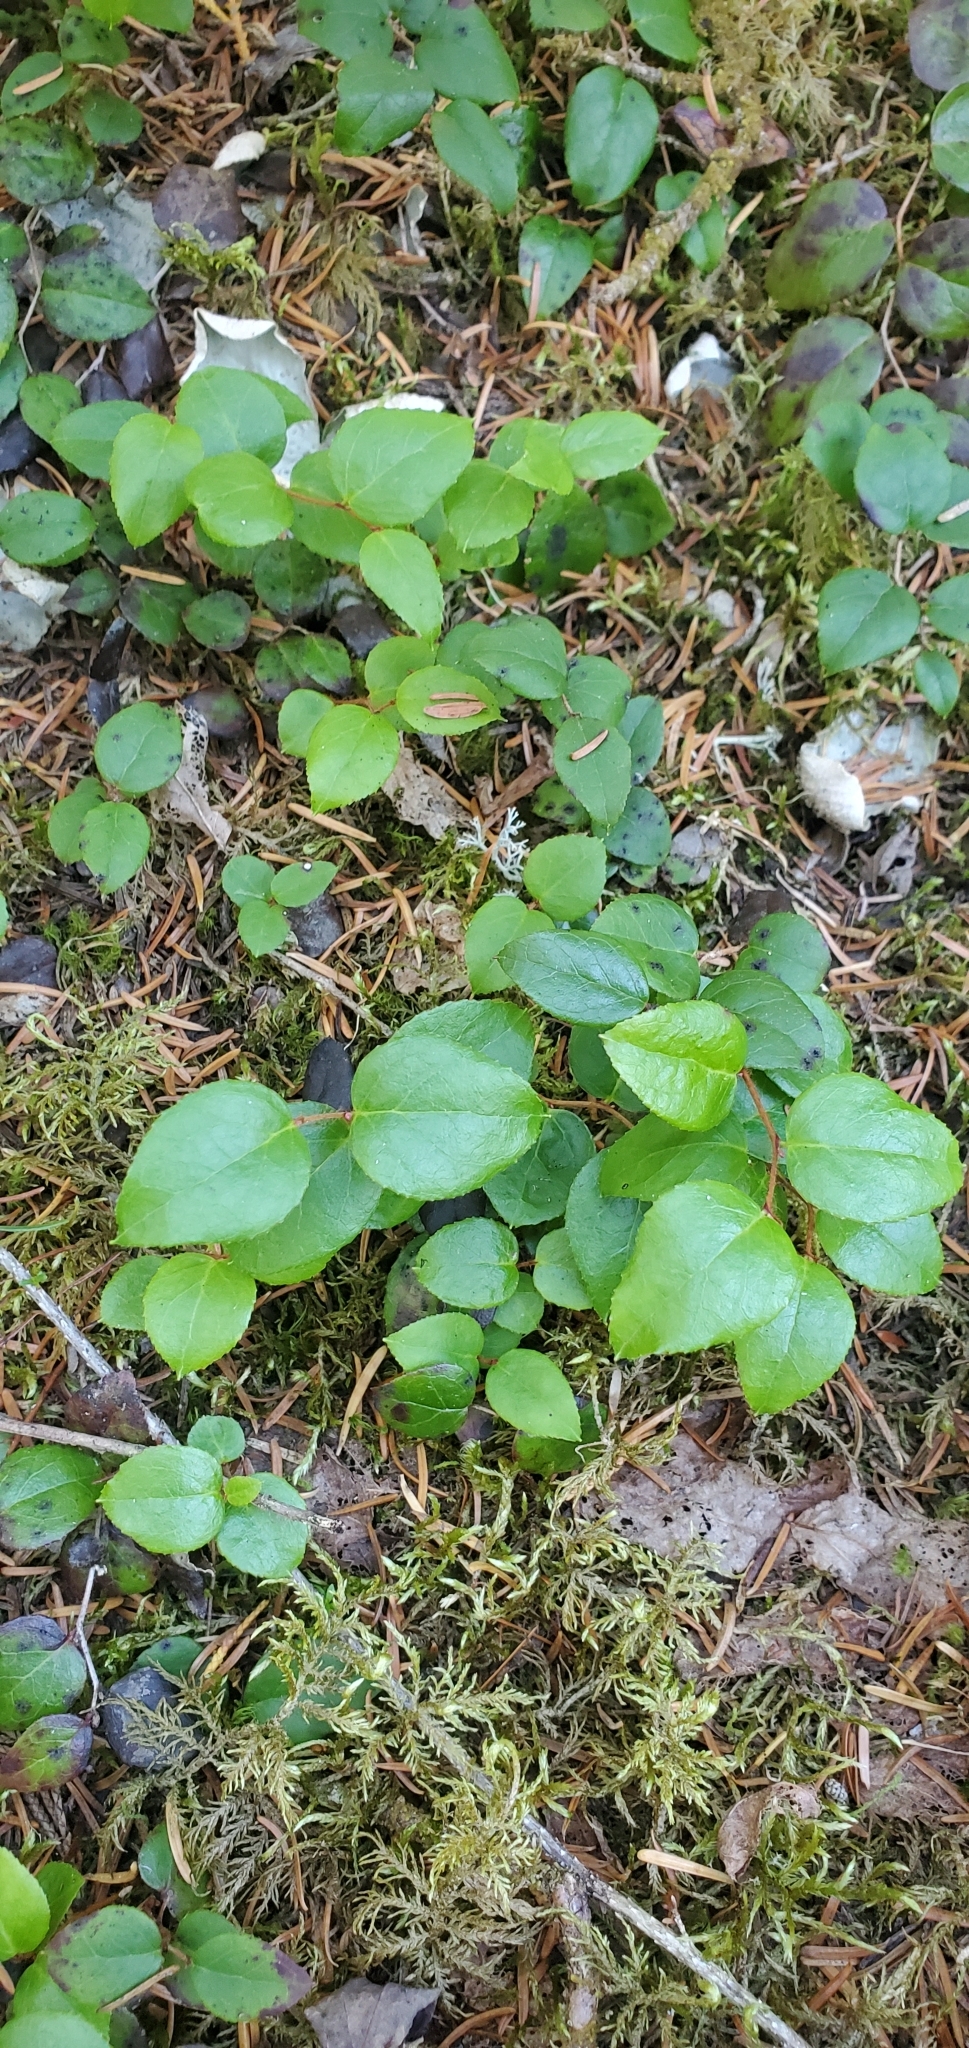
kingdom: Plantae
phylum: Tracheophyta
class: Magnoliopsida
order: Ericales
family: Ericaceae
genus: Gaultheria
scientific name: Gaultheria ovatifolia
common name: Oregon wintergreen
